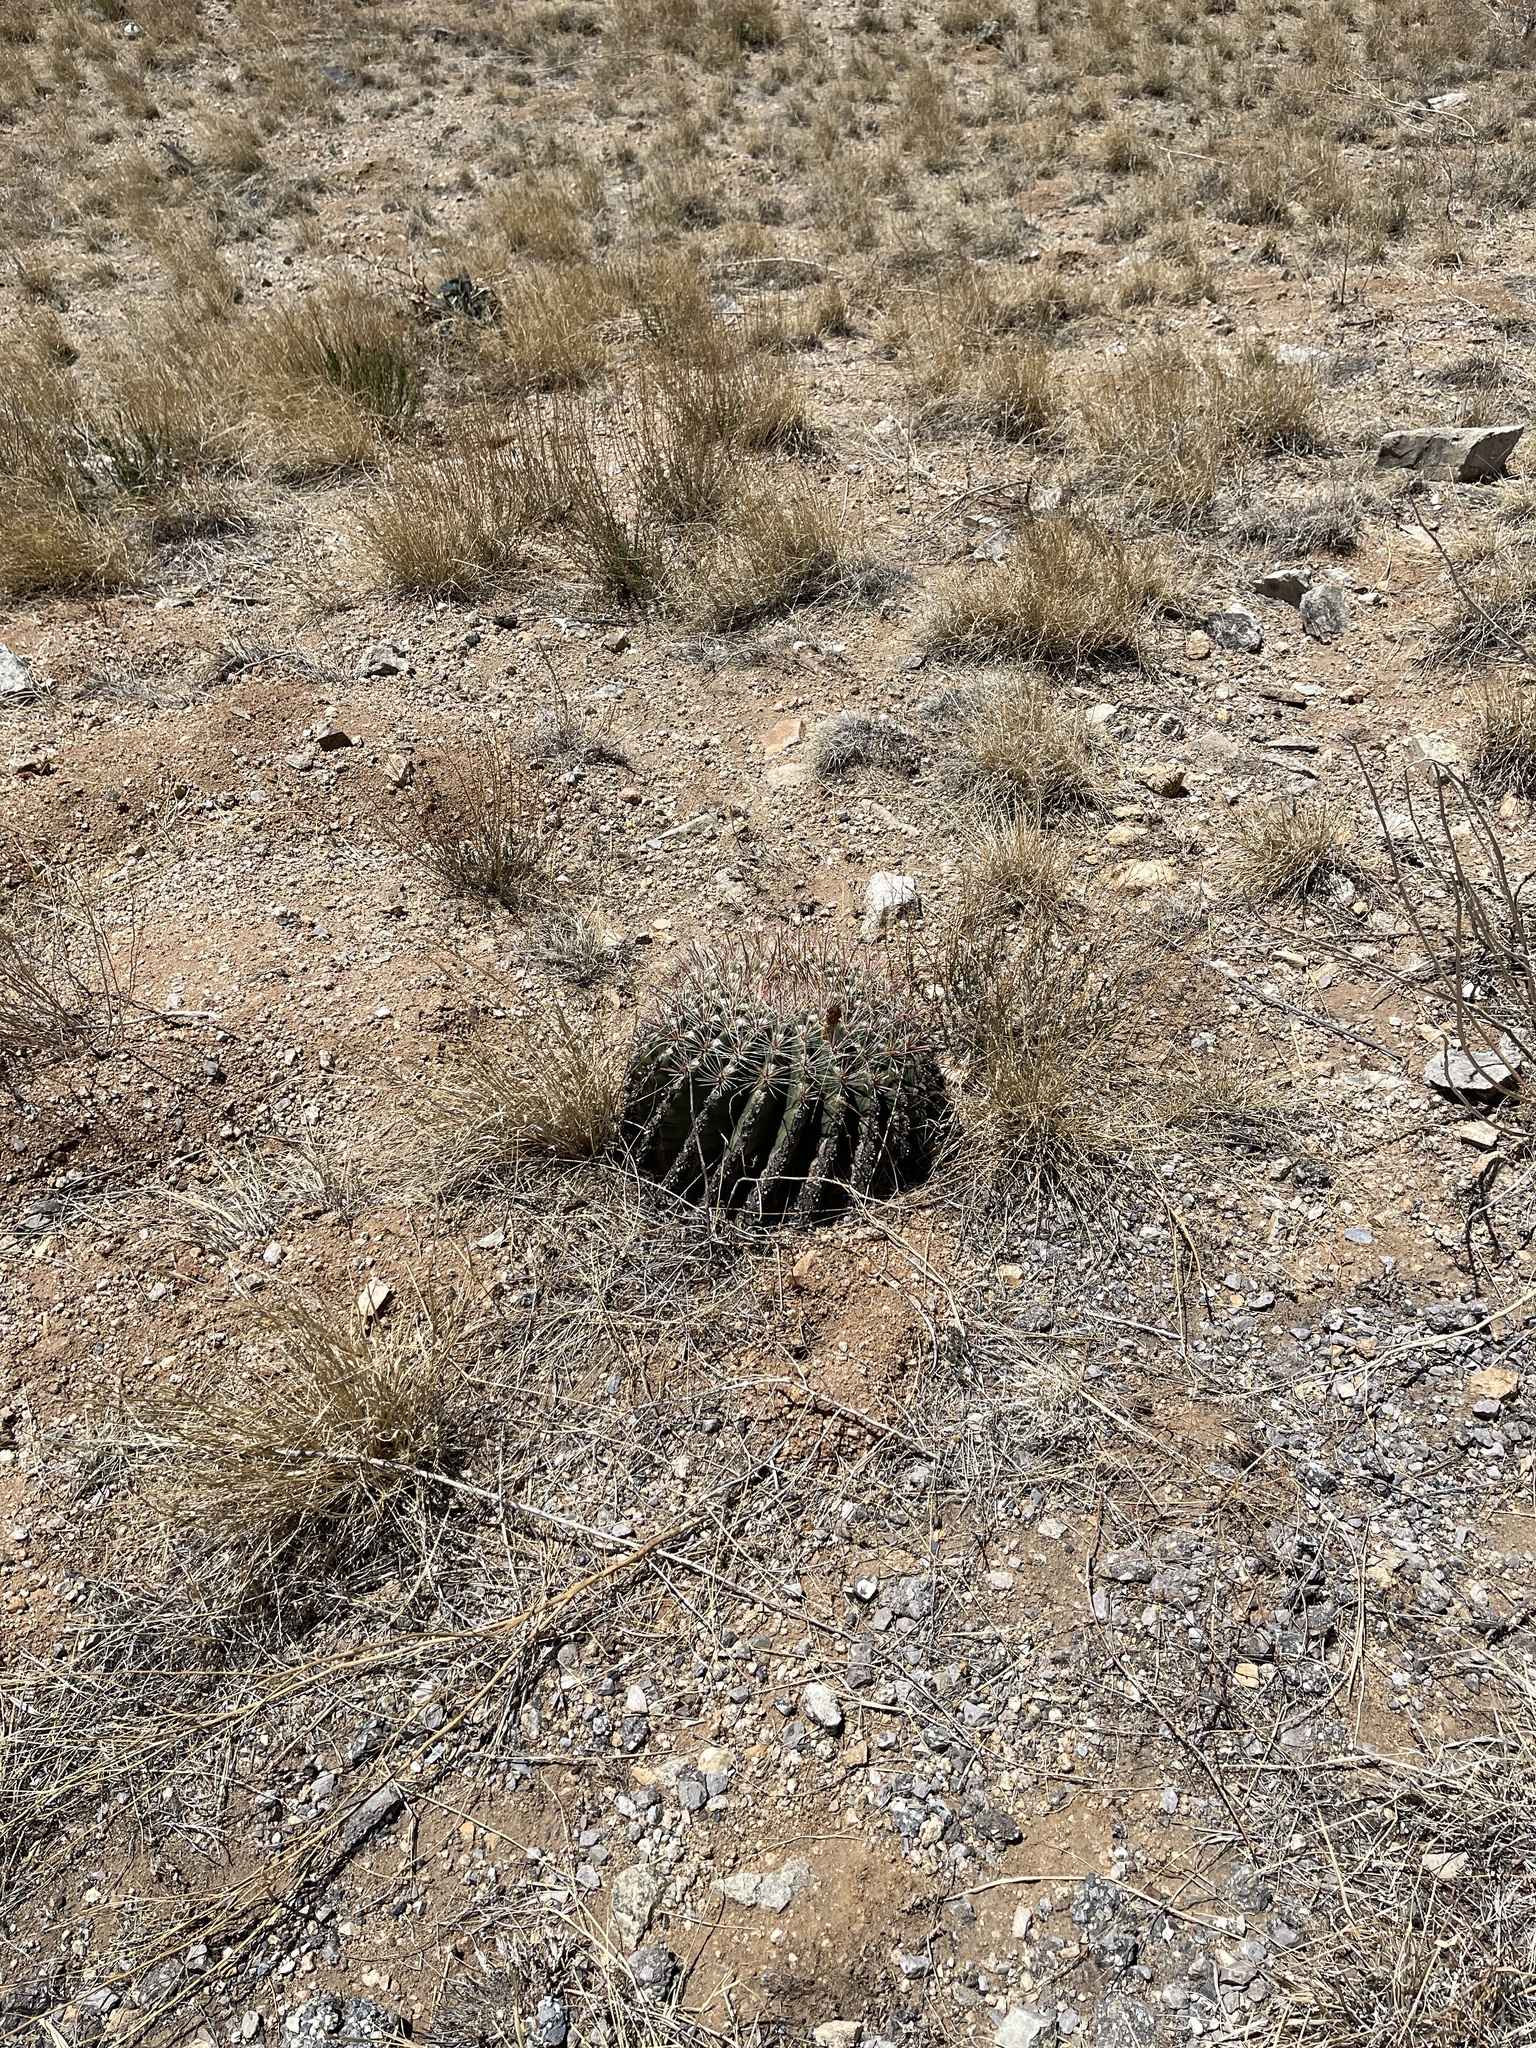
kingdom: Plantae
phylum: Tracheophyta
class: Magnoliopsida
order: Caryophyllales
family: Cactaceae
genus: Ferocactus
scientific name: Ferocactus wislizeni
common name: Candy barrel cactus
